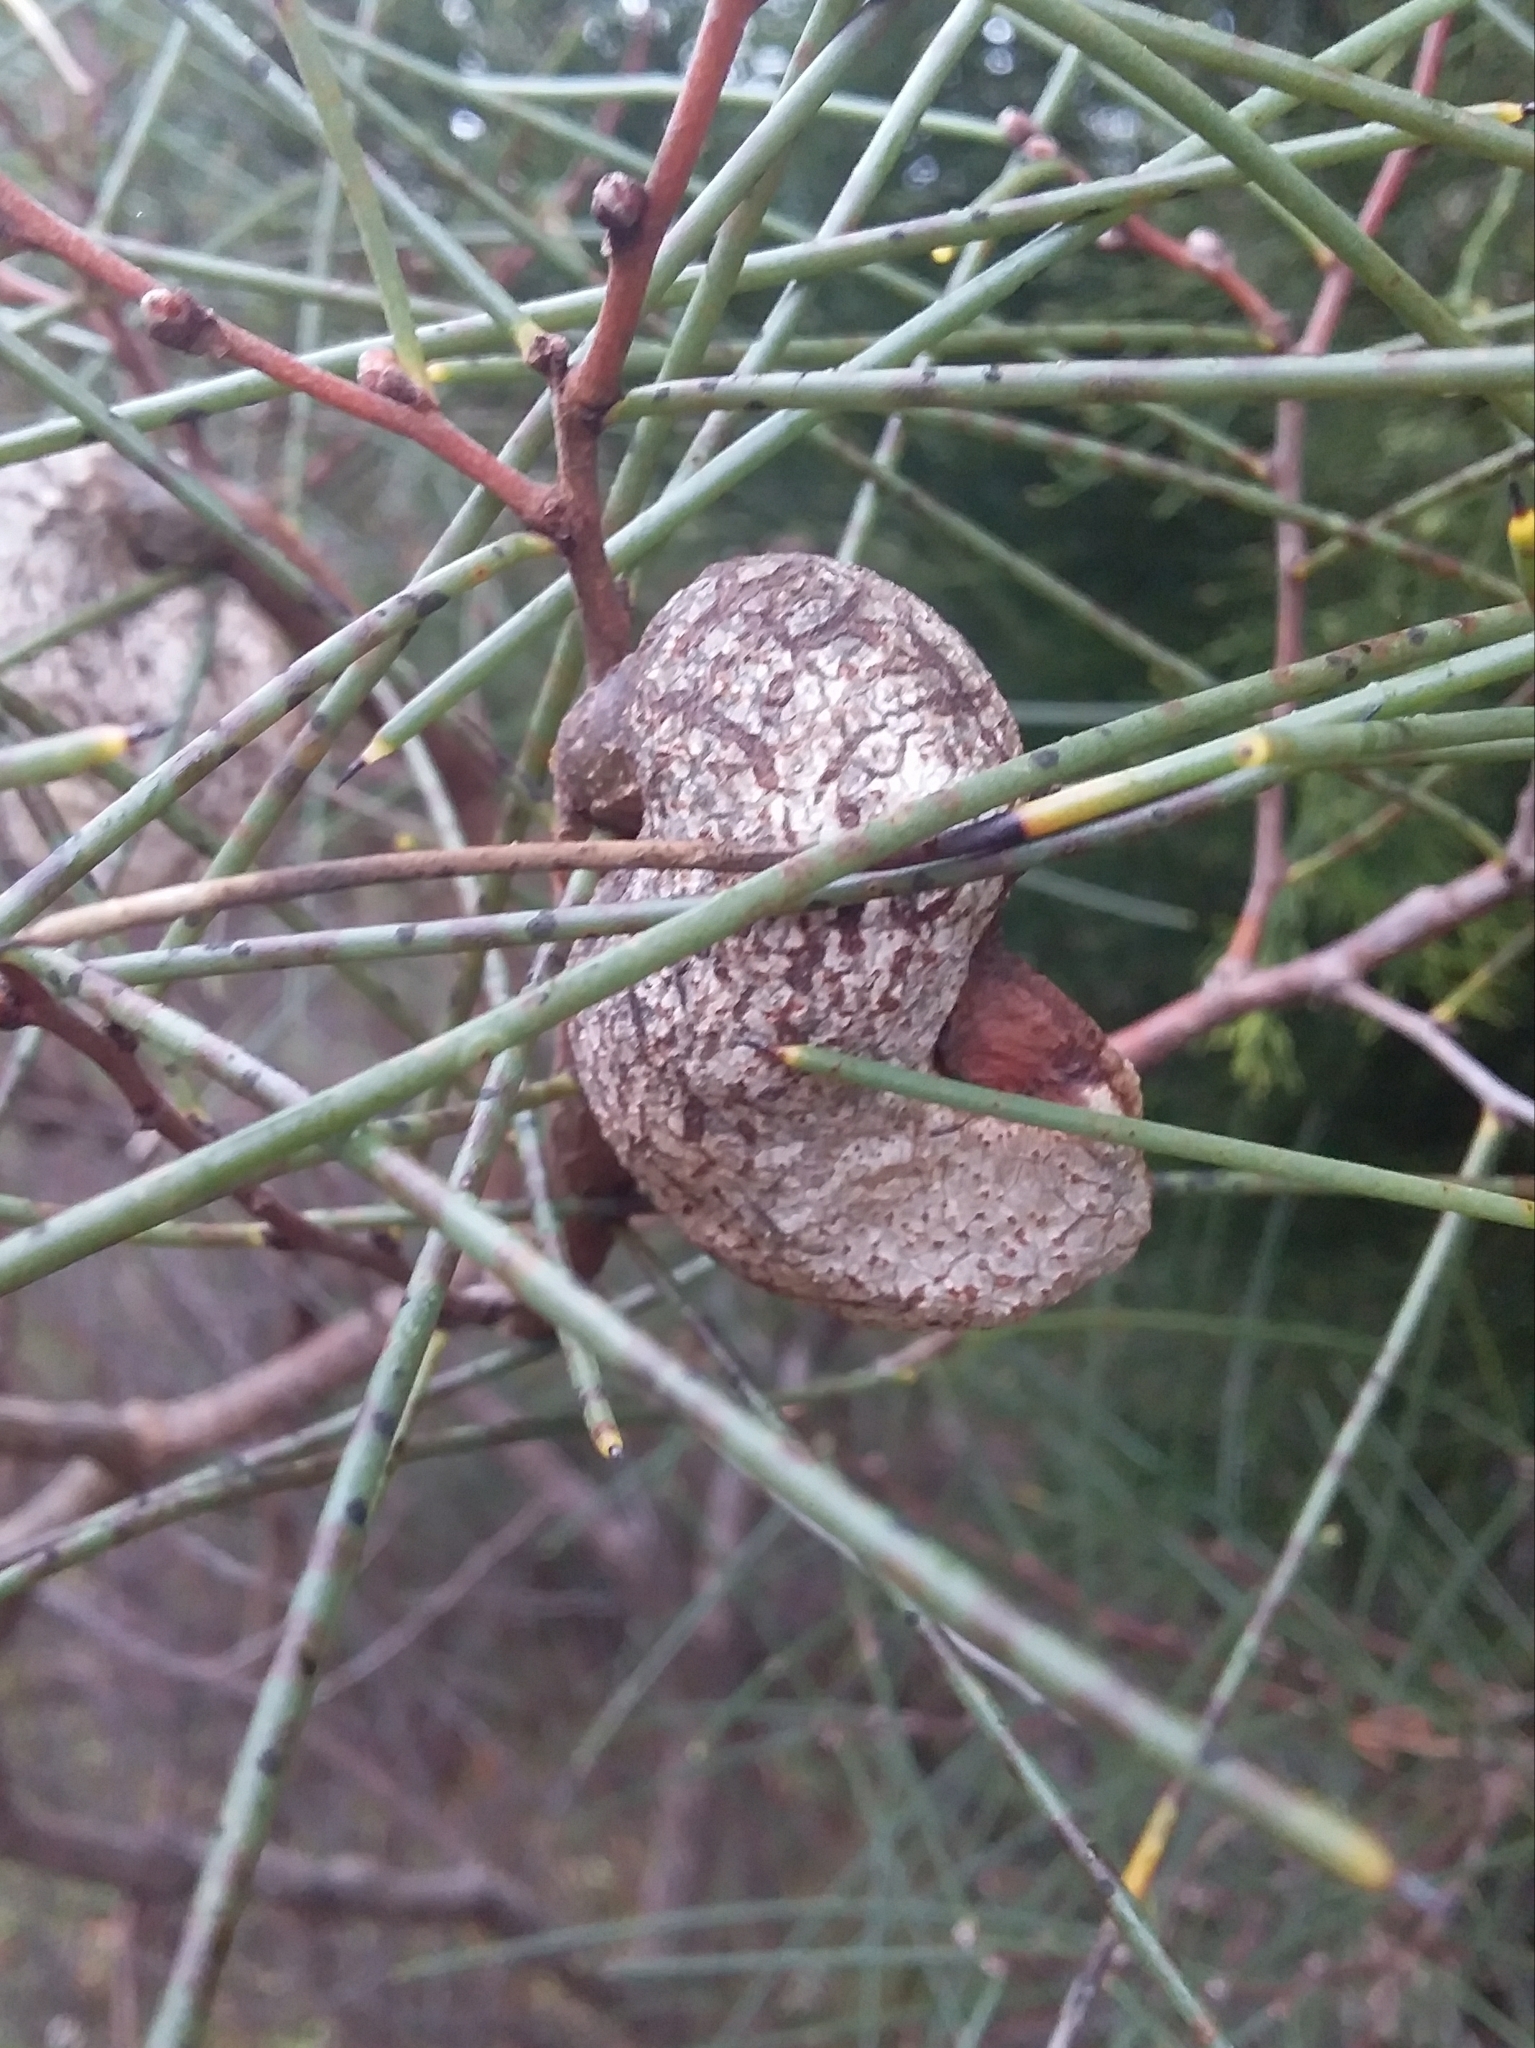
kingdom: Plantae
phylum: Tracheophyta
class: Magnoliopsida
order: Proteales
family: Proteaceae
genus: Hakea
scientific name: Hakea rostrata
